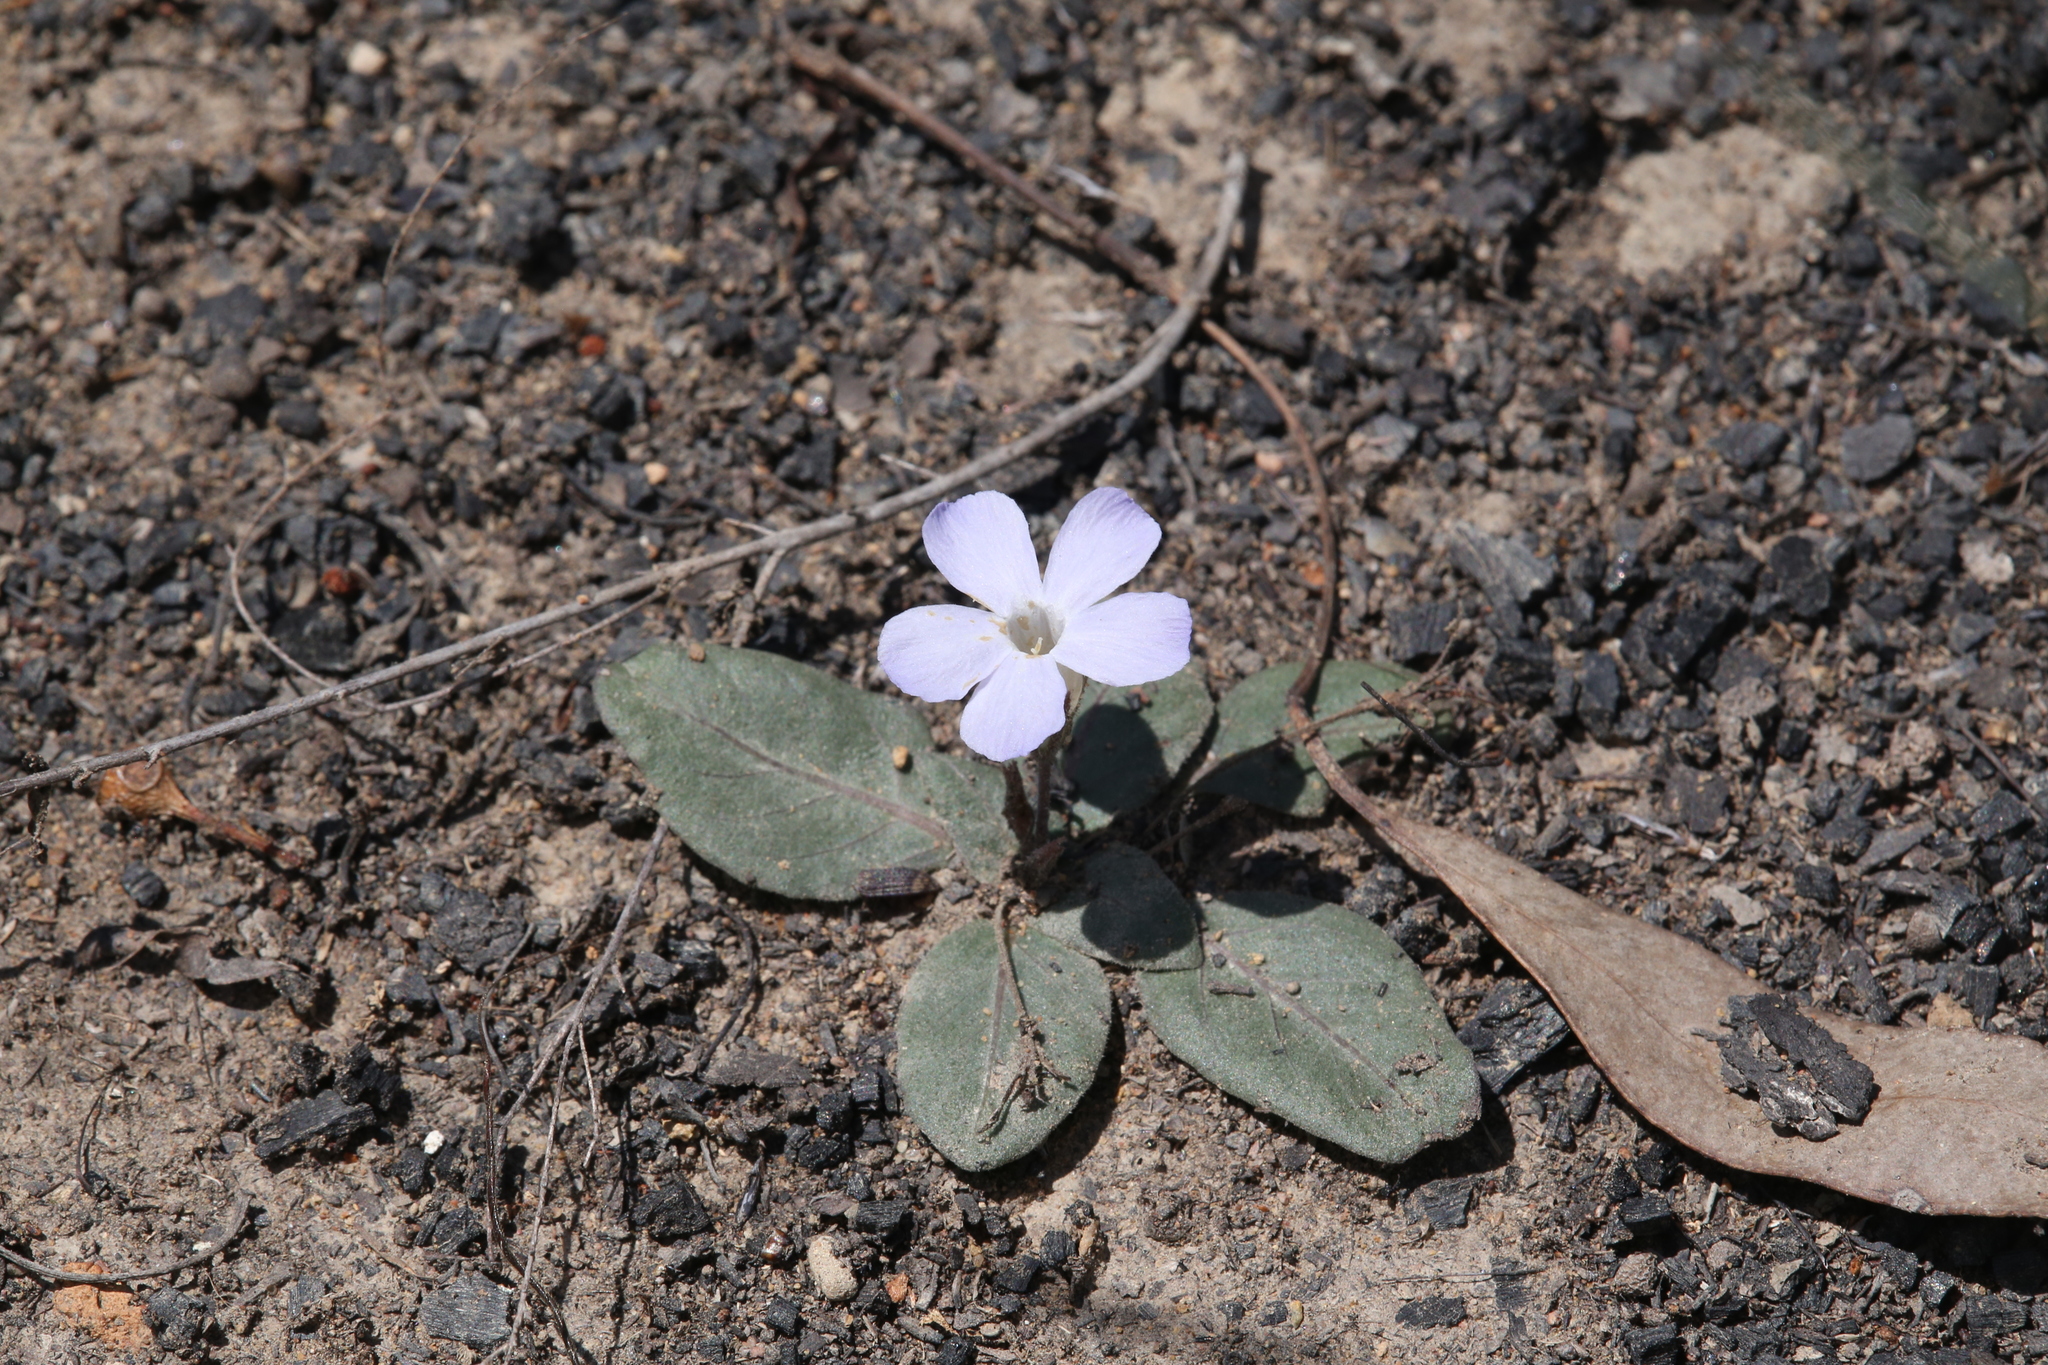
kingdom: Plantae
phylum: Tracheophyta
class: Magnoliopsida
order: Lamiales
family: Acanthaceae
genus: Brunoniella
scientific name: Brunoniella acaulis
